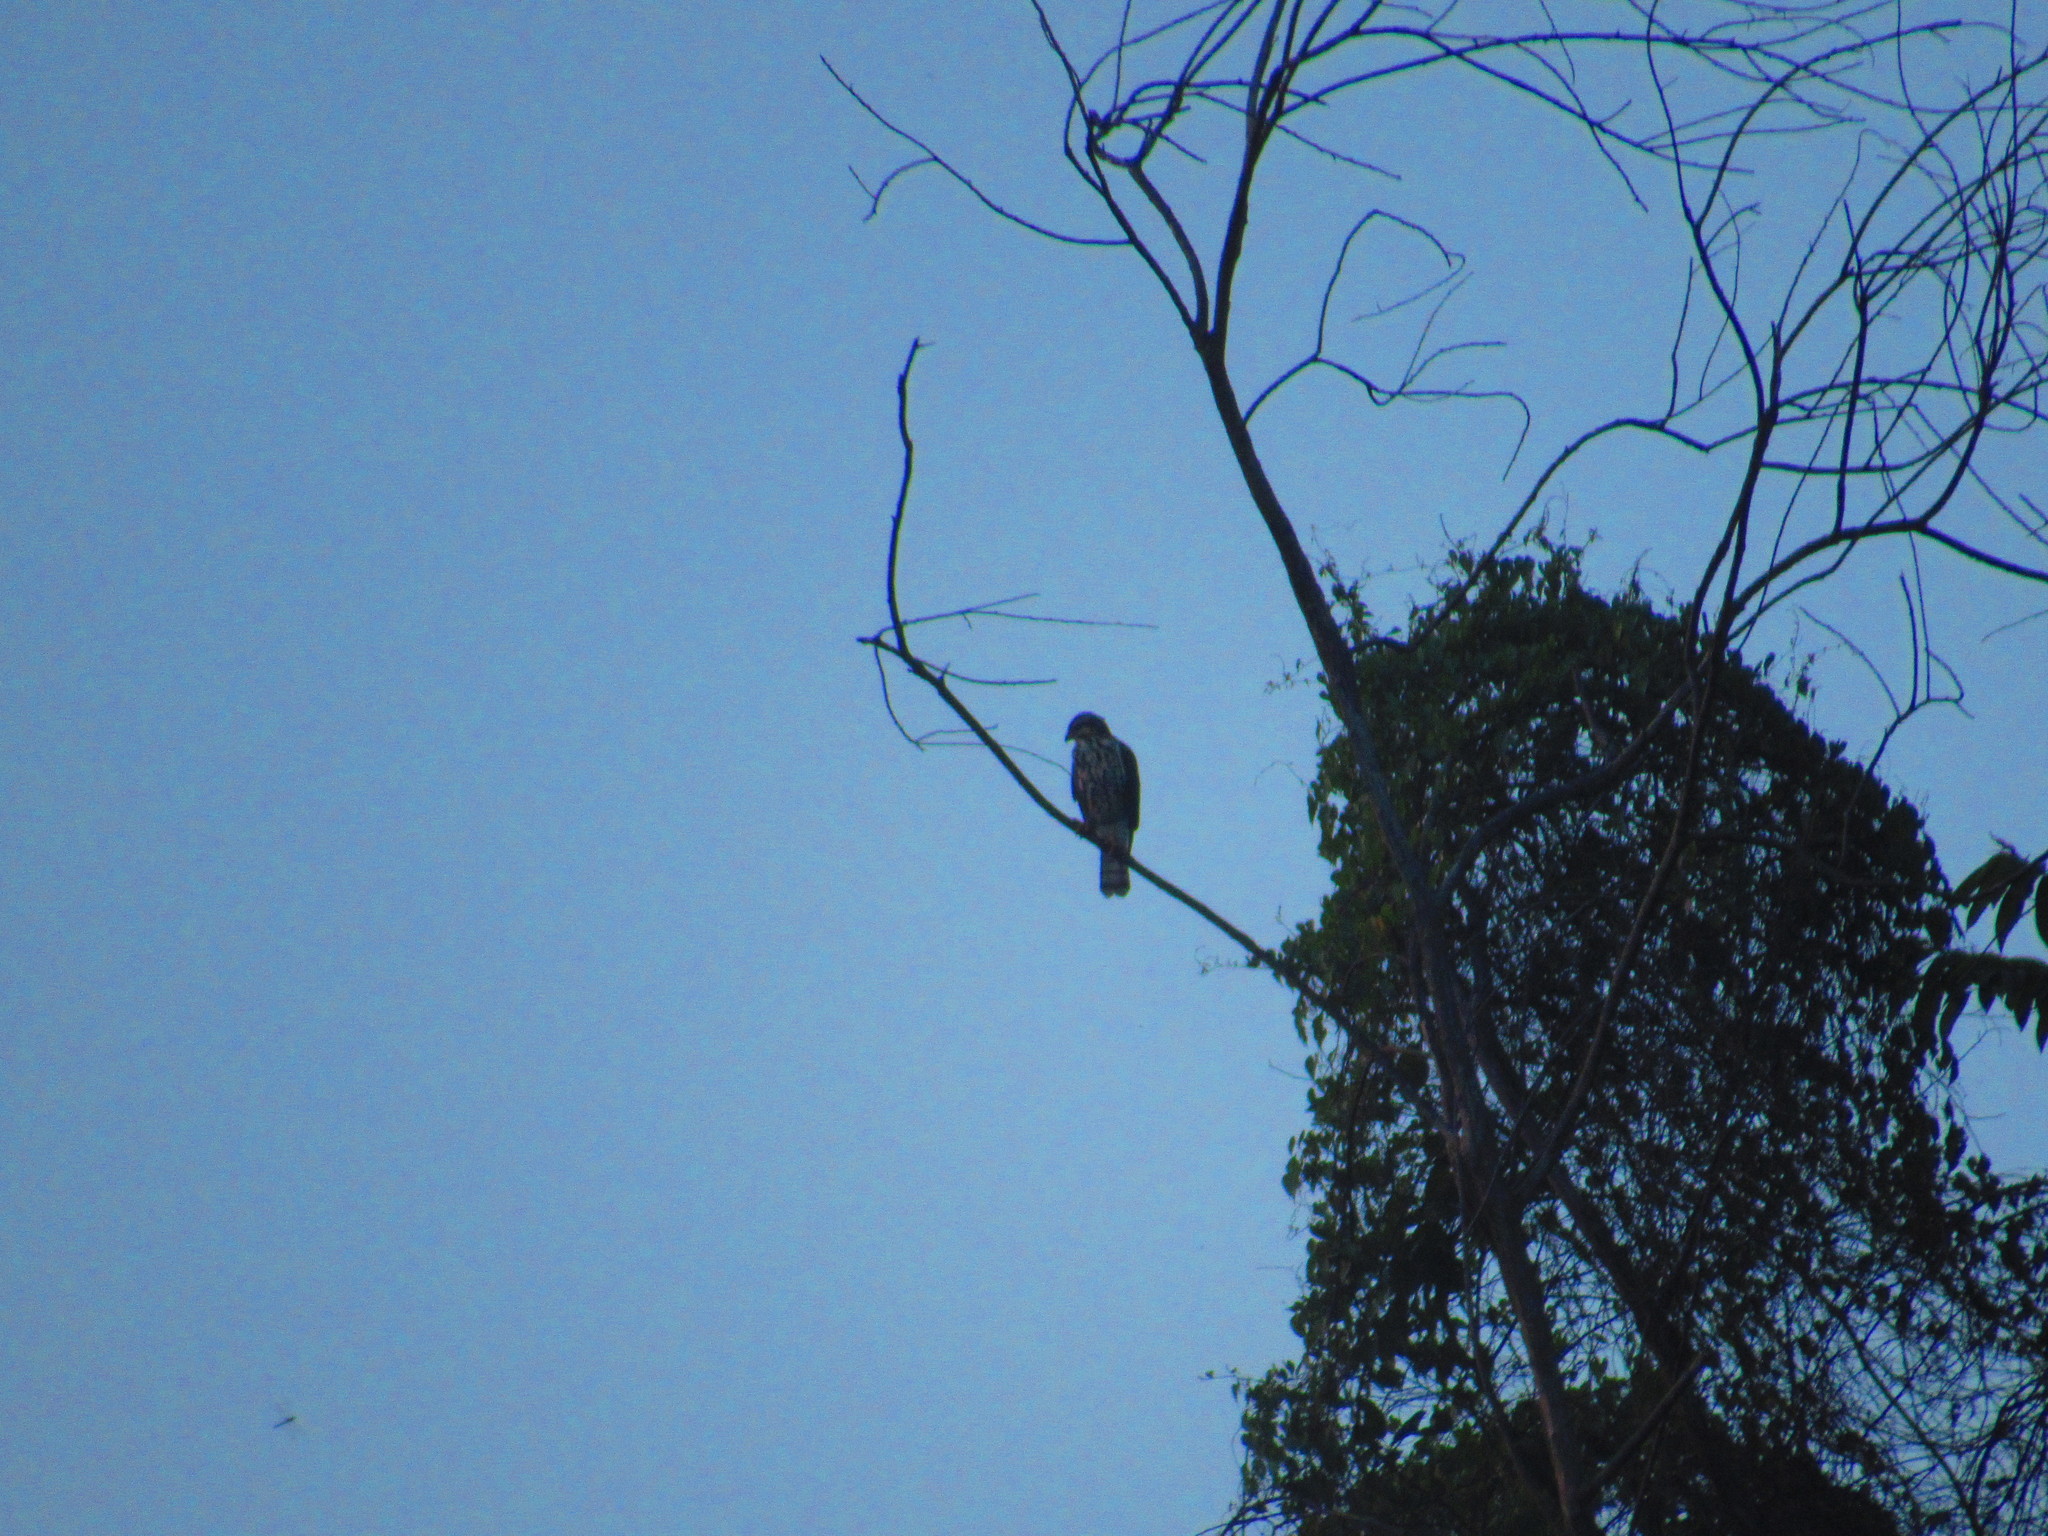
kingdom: Animalia
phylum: Chordata
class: Aves
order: Accipitriformes
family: Accipitridae
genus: Buteo
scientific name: Buteo nitidus
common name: Grey-lined hawk
